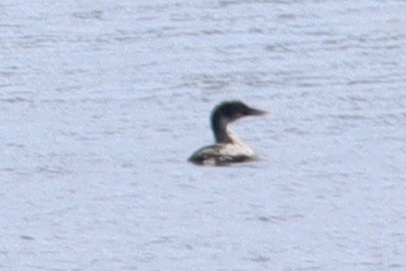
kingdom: Animalia
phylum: Chordata
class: Aves
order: Gaviiformes
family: Gaviidae
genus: Gavia
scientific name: Gavia adamsii
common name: Yellow-billed loon
